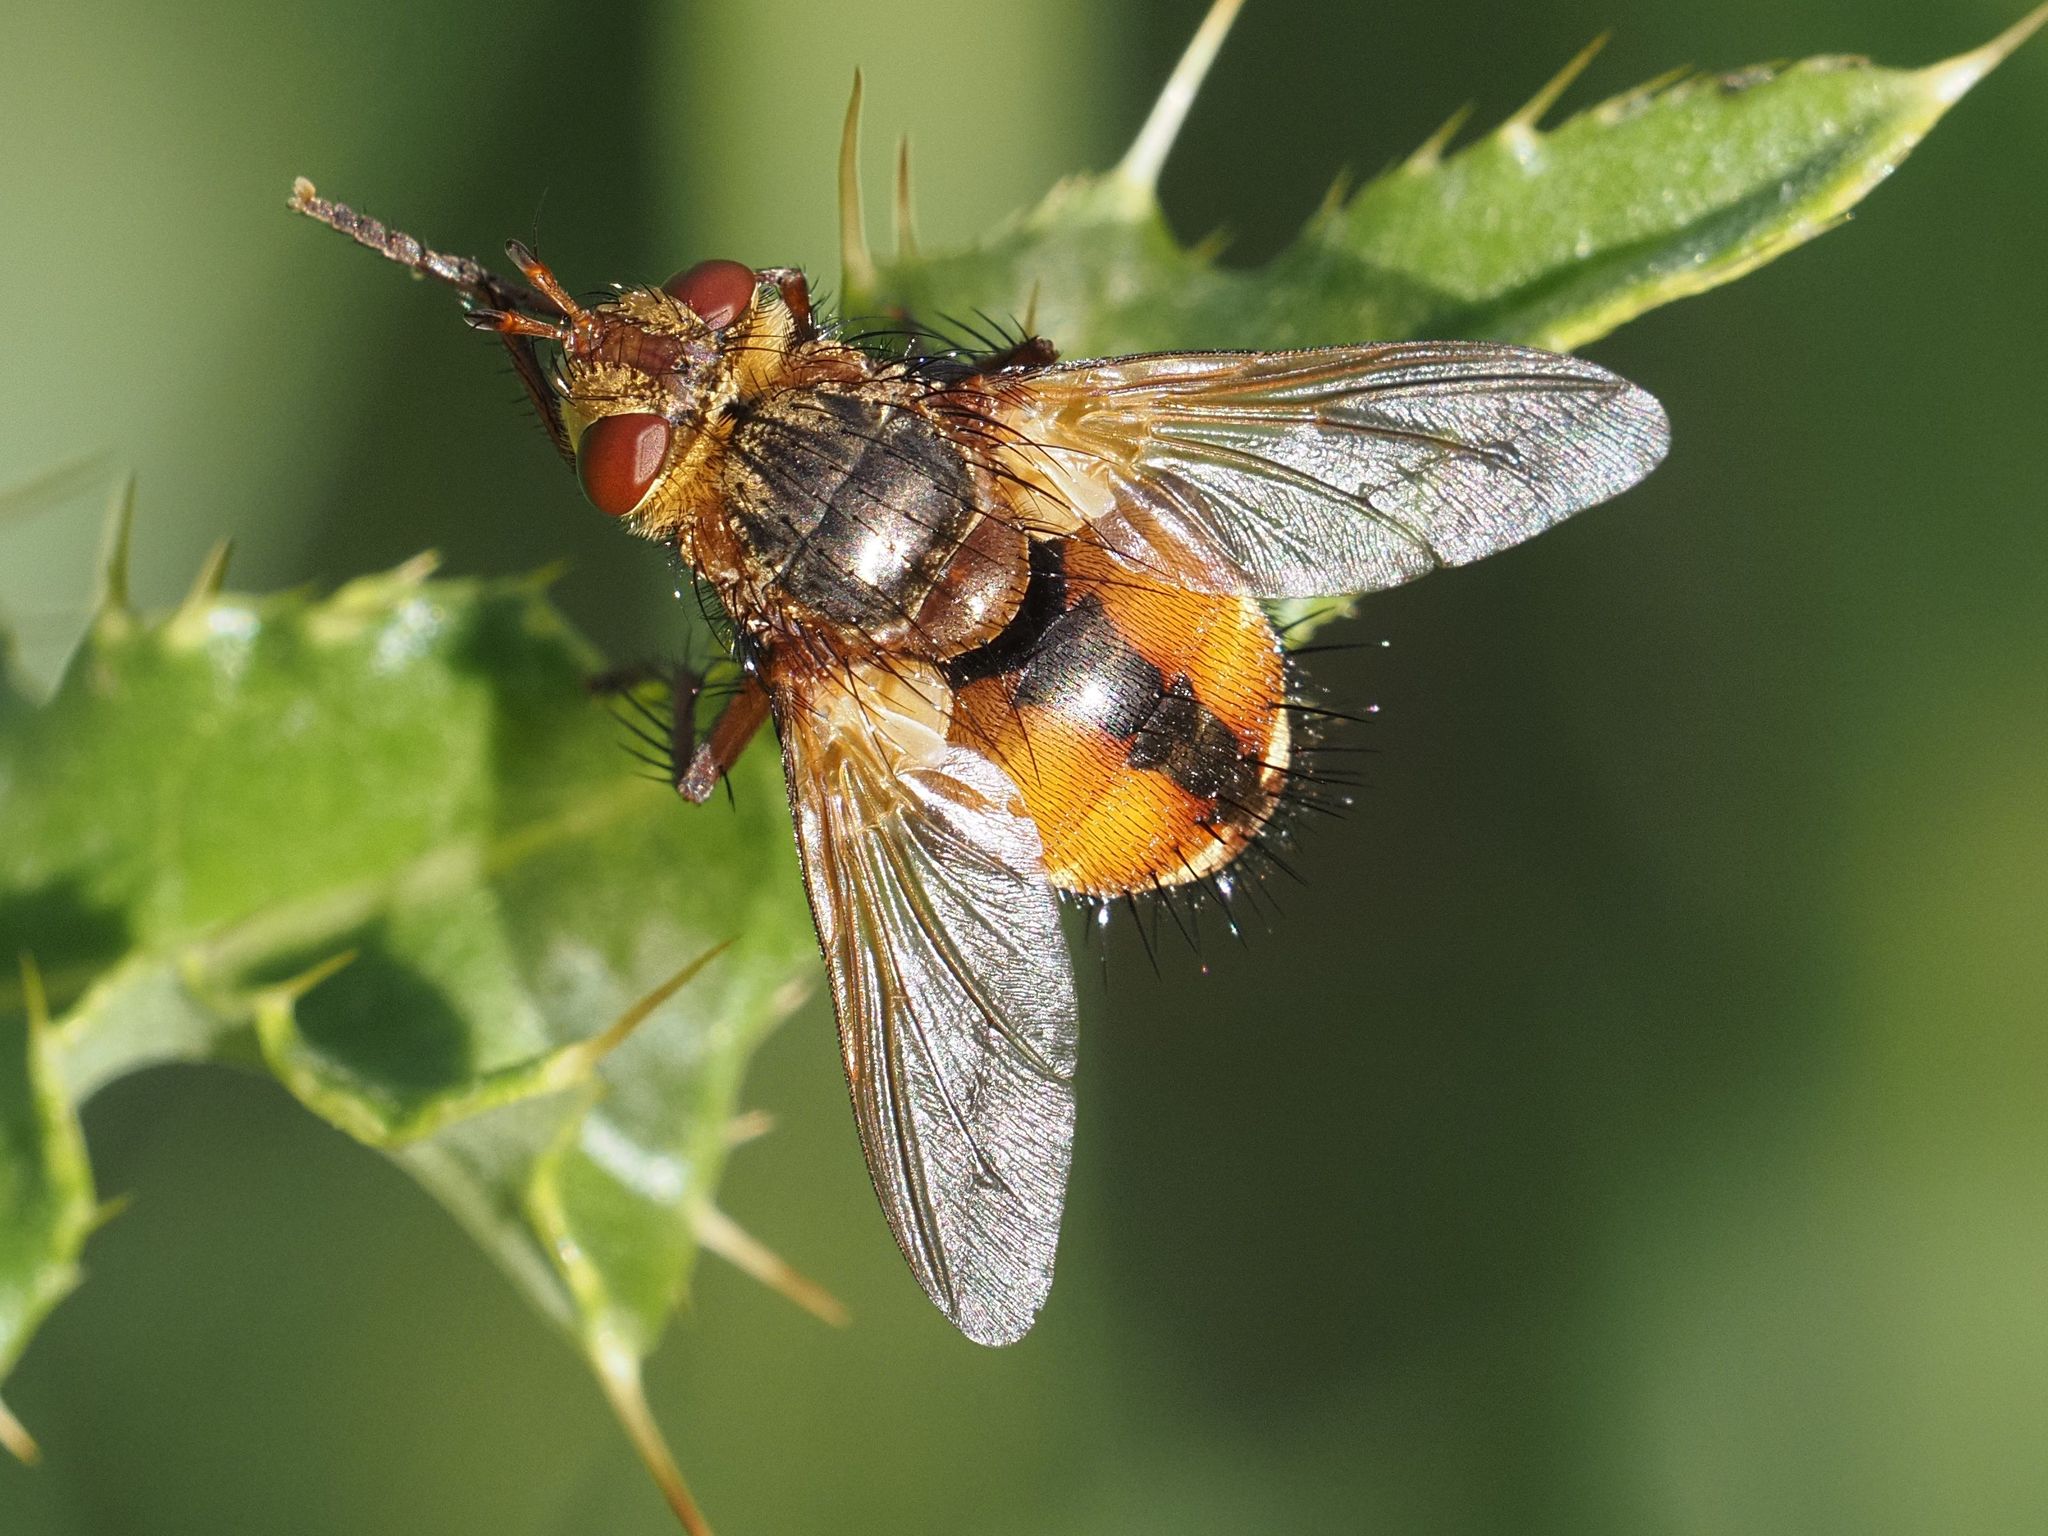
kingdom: Animalia
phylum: Arthropoda
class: Insecta
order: Diptera
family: Tachinidae
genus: Tachina
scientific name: Tachina fera
